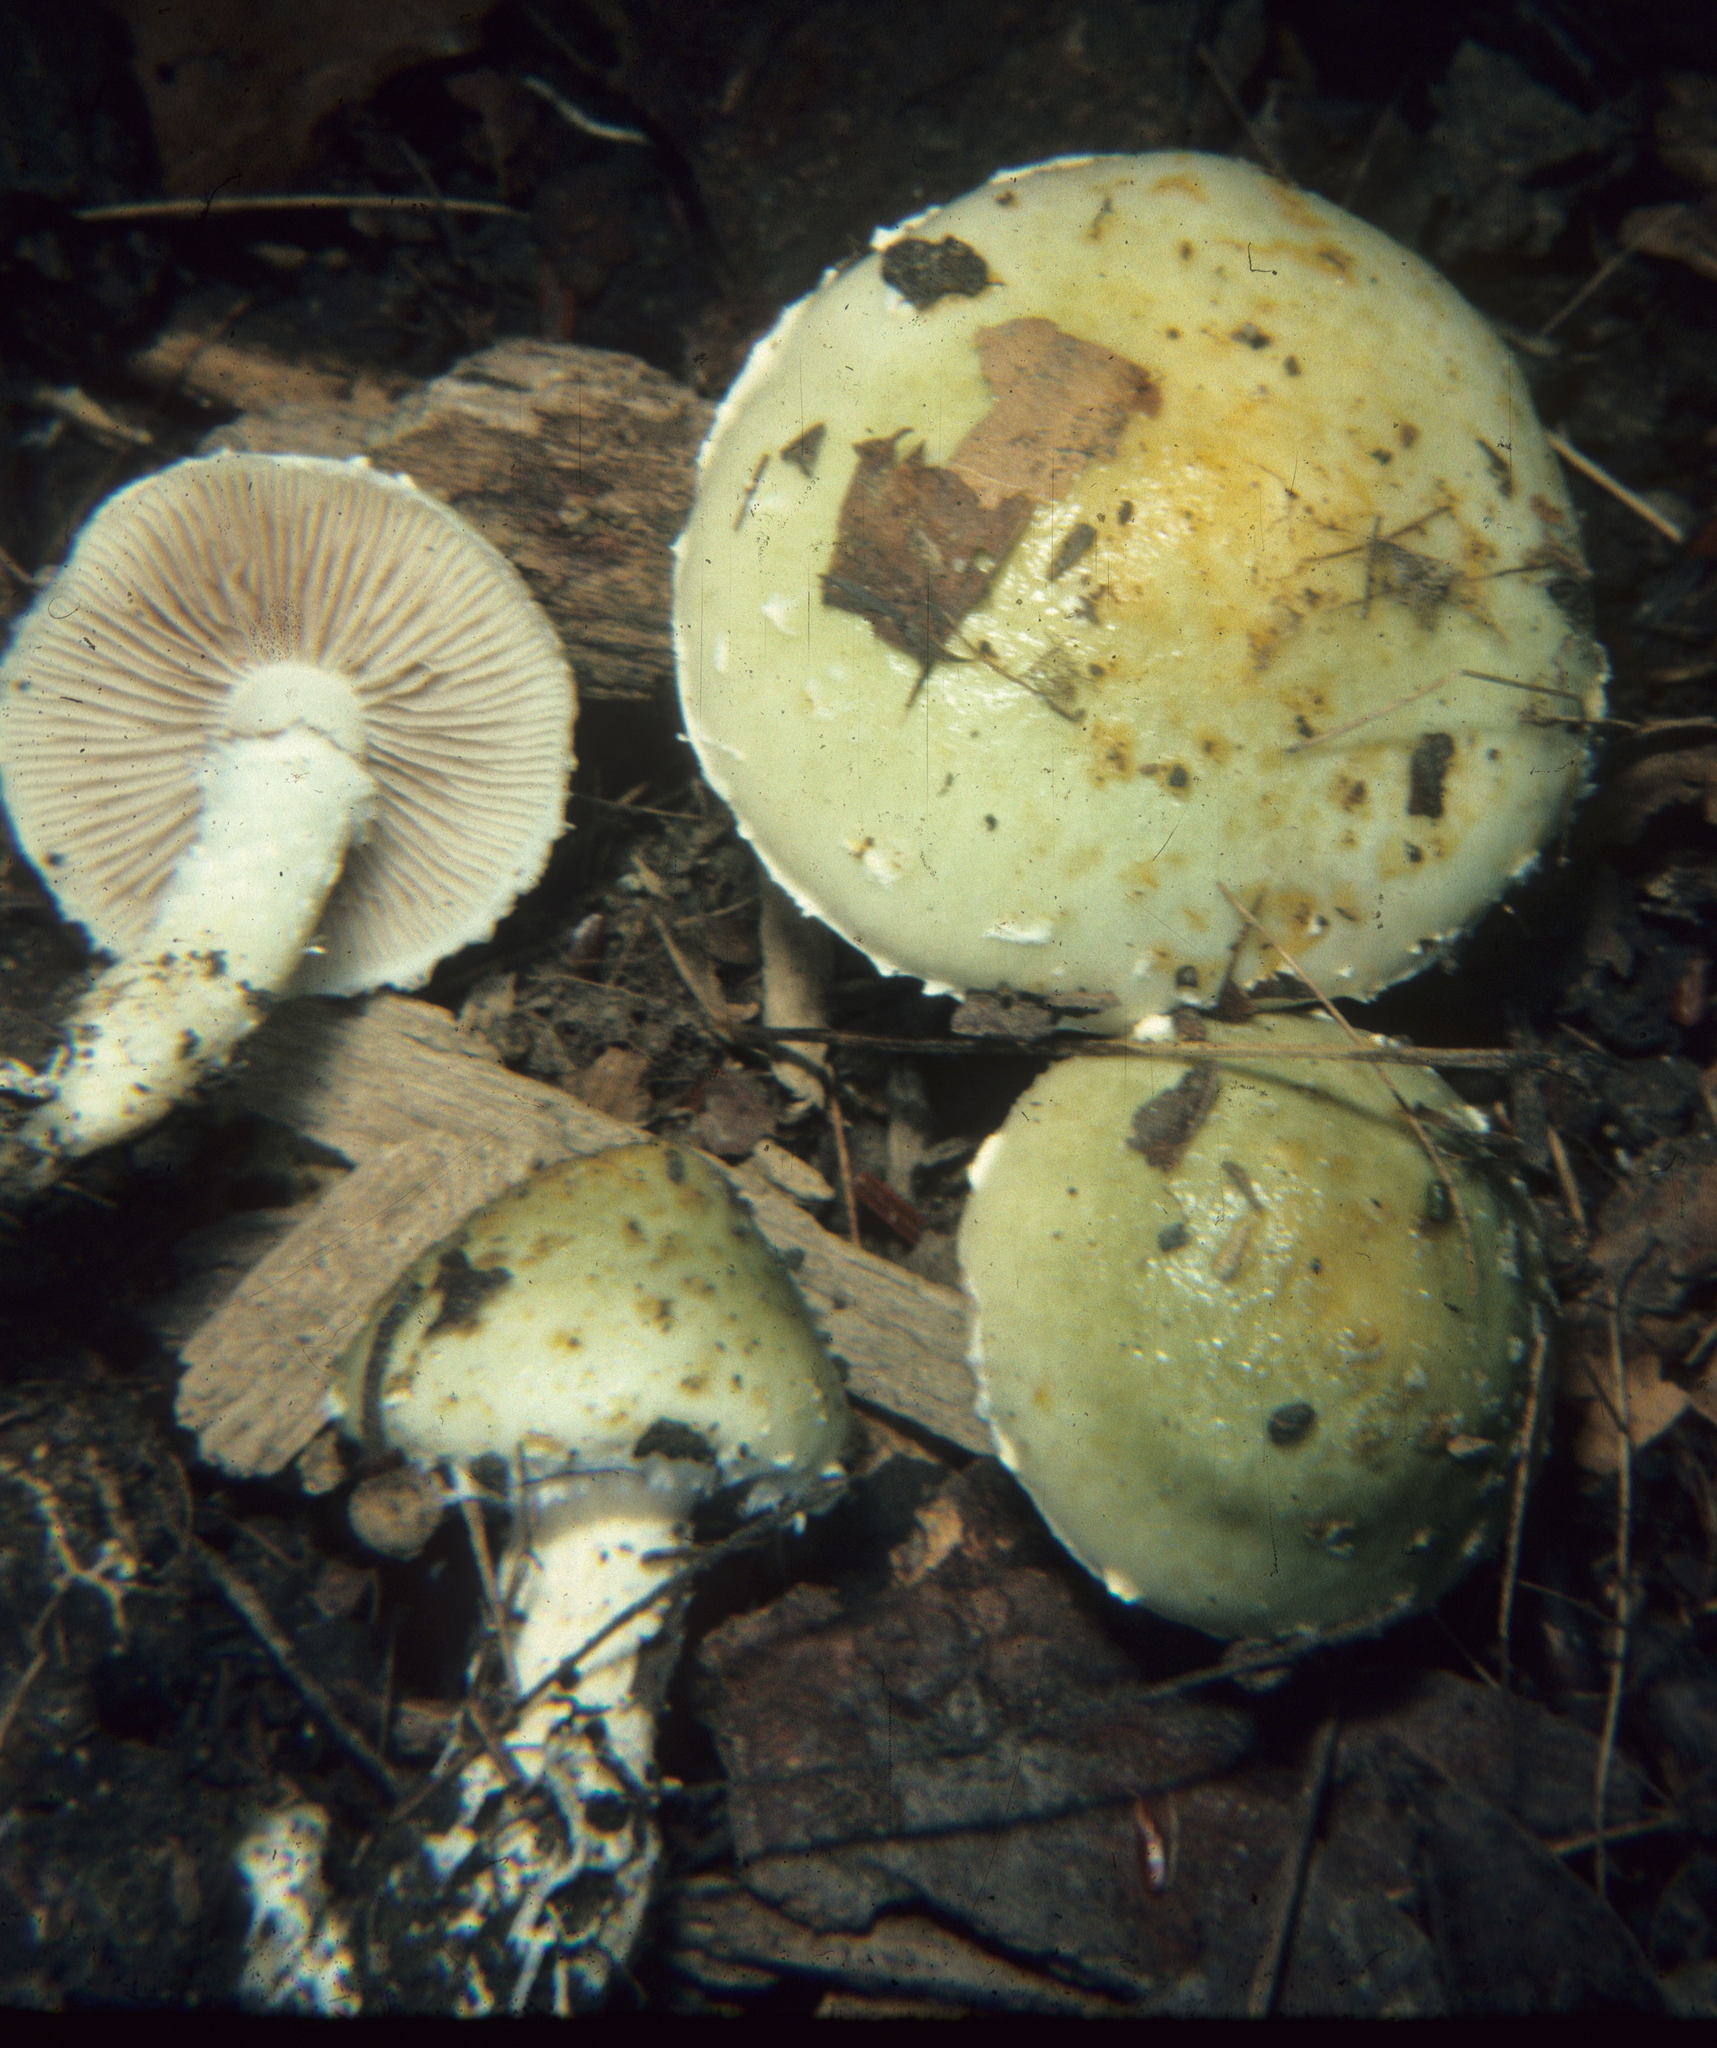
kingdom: Fungi
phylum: Basidiomycota
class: Agaricomycetes
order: Agaricales
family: Strophariaceae
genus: Stropharia
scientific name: Stropharia aeruginosa
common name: Verdigris roundhead
